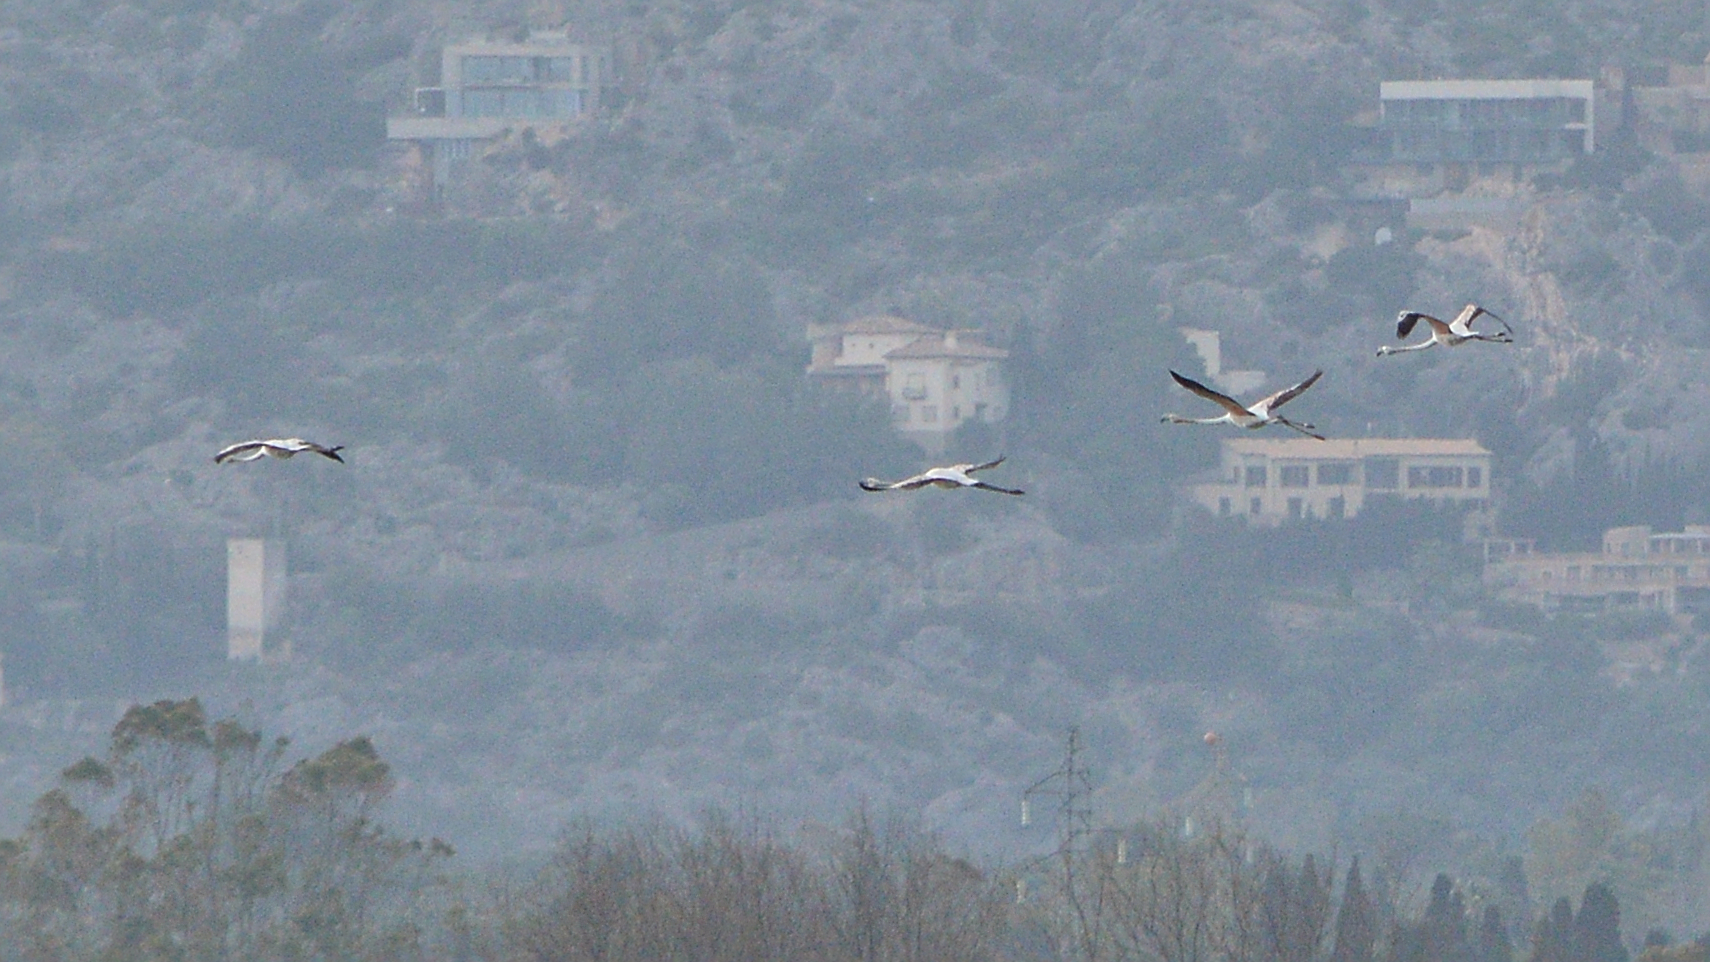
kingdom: Animalia
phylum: Chordata
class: Aves
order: Phoenicopteriformes
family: Phoenicopteridae
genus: Phoenicopterus
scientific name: Phoenicopterus roseus
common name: Greater flamingo
